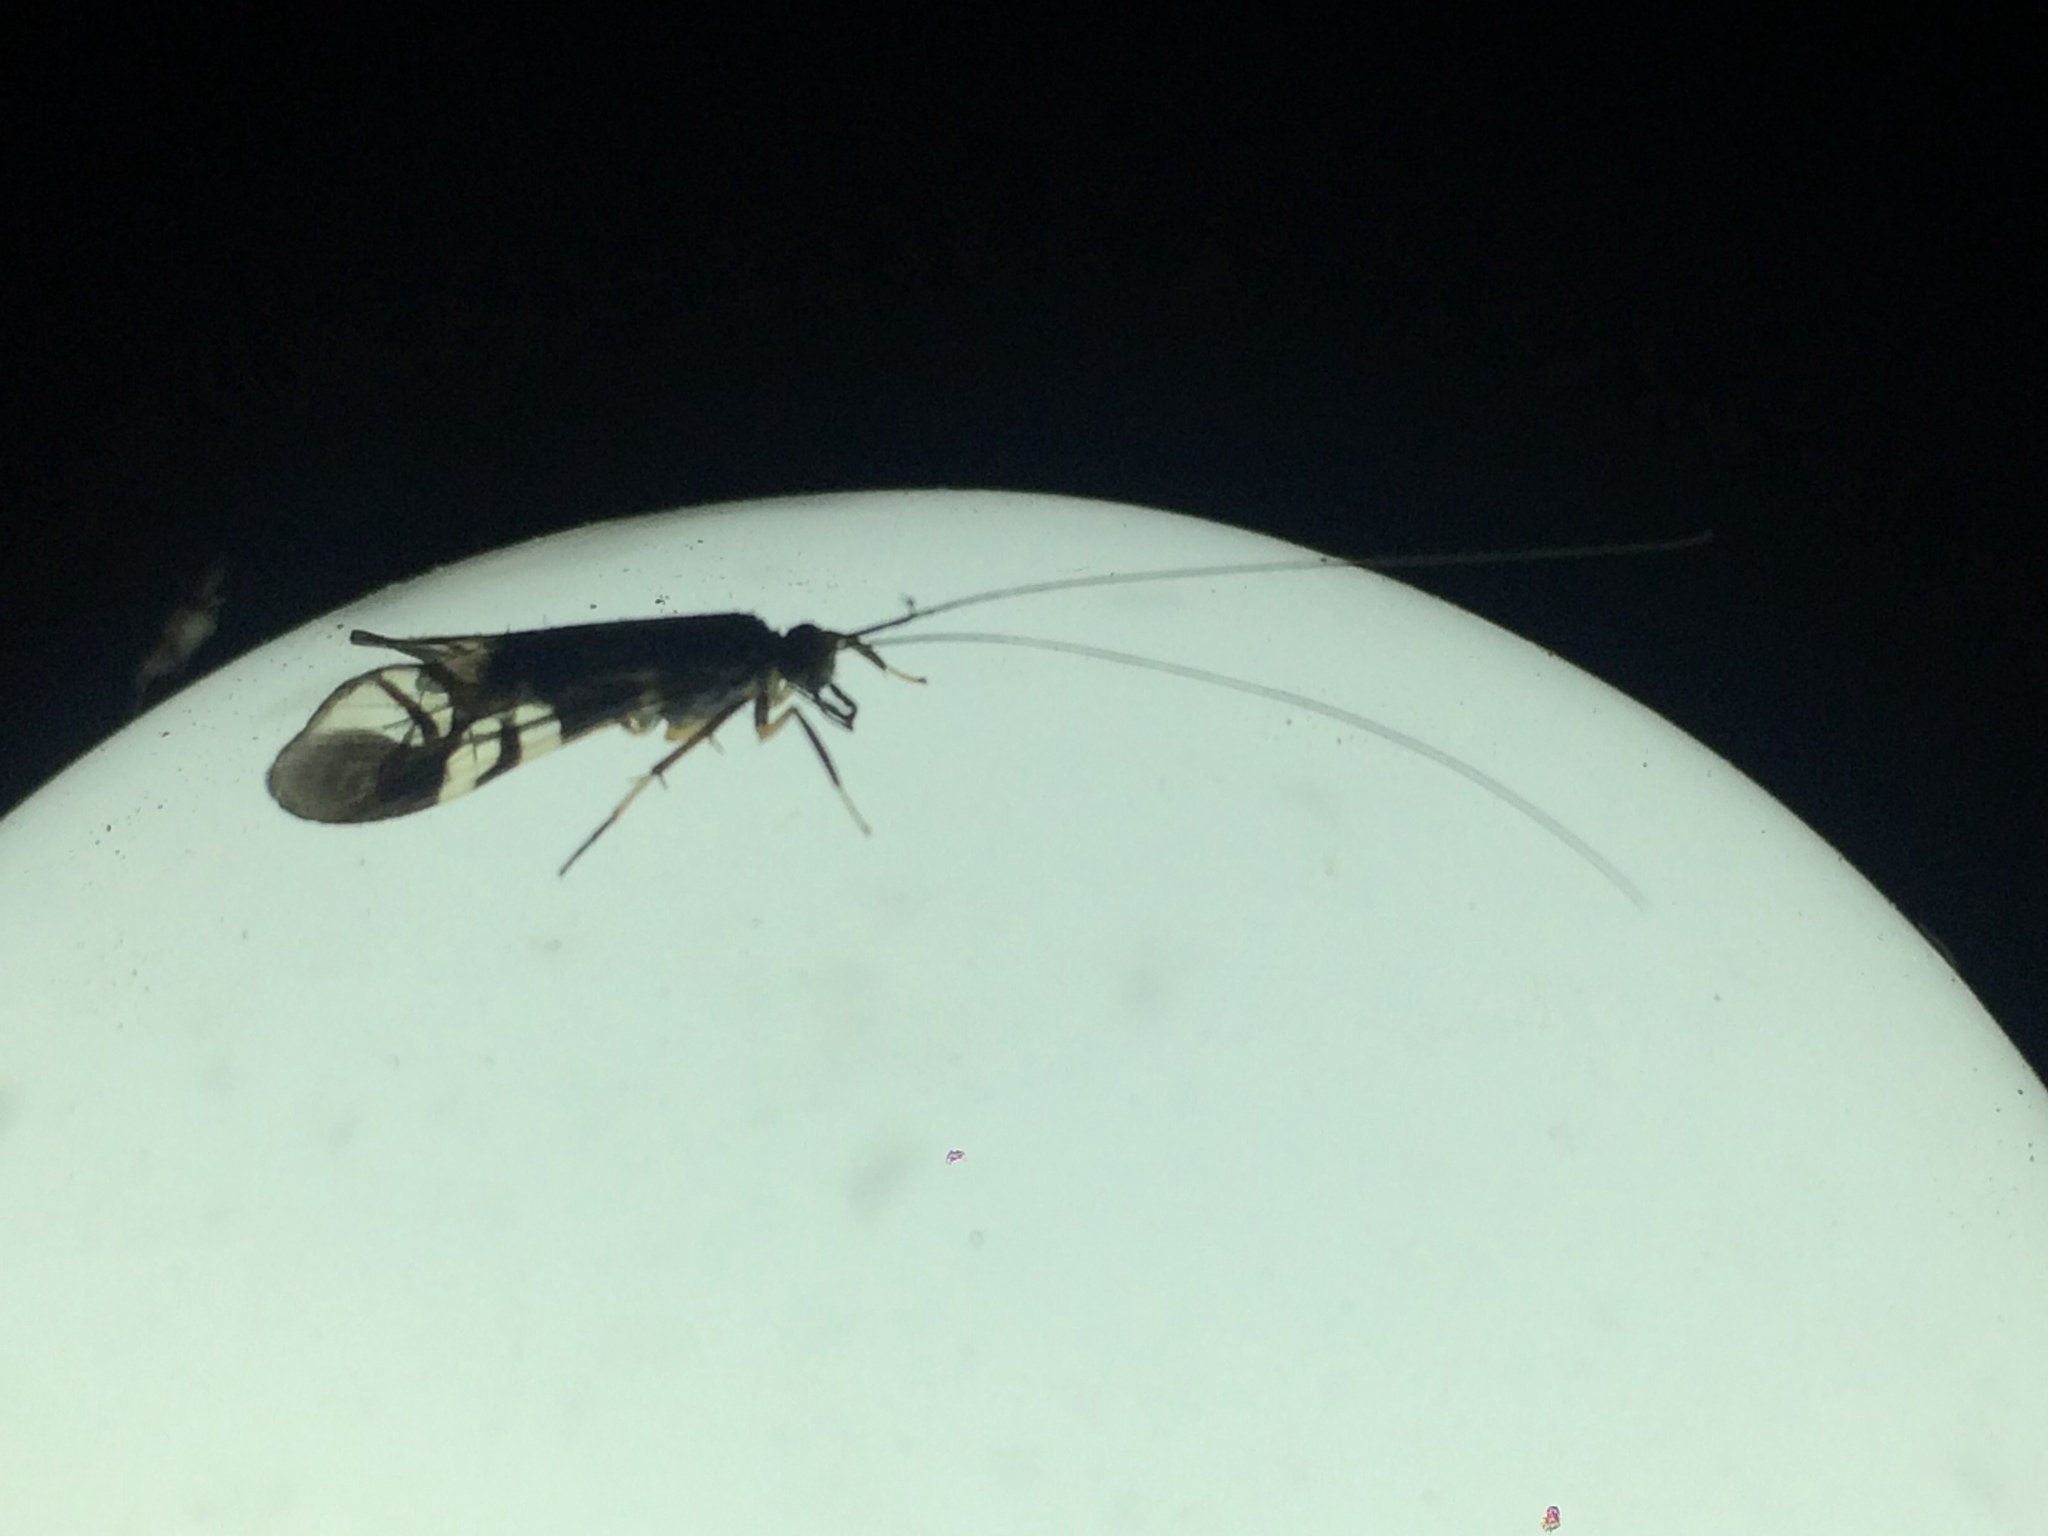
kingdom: Animalia
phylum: Arthropoda
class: Insecta
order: Trichoptera
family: Hydropsychidae
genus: Macrostemum
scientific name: Macrostemum hyalinum
